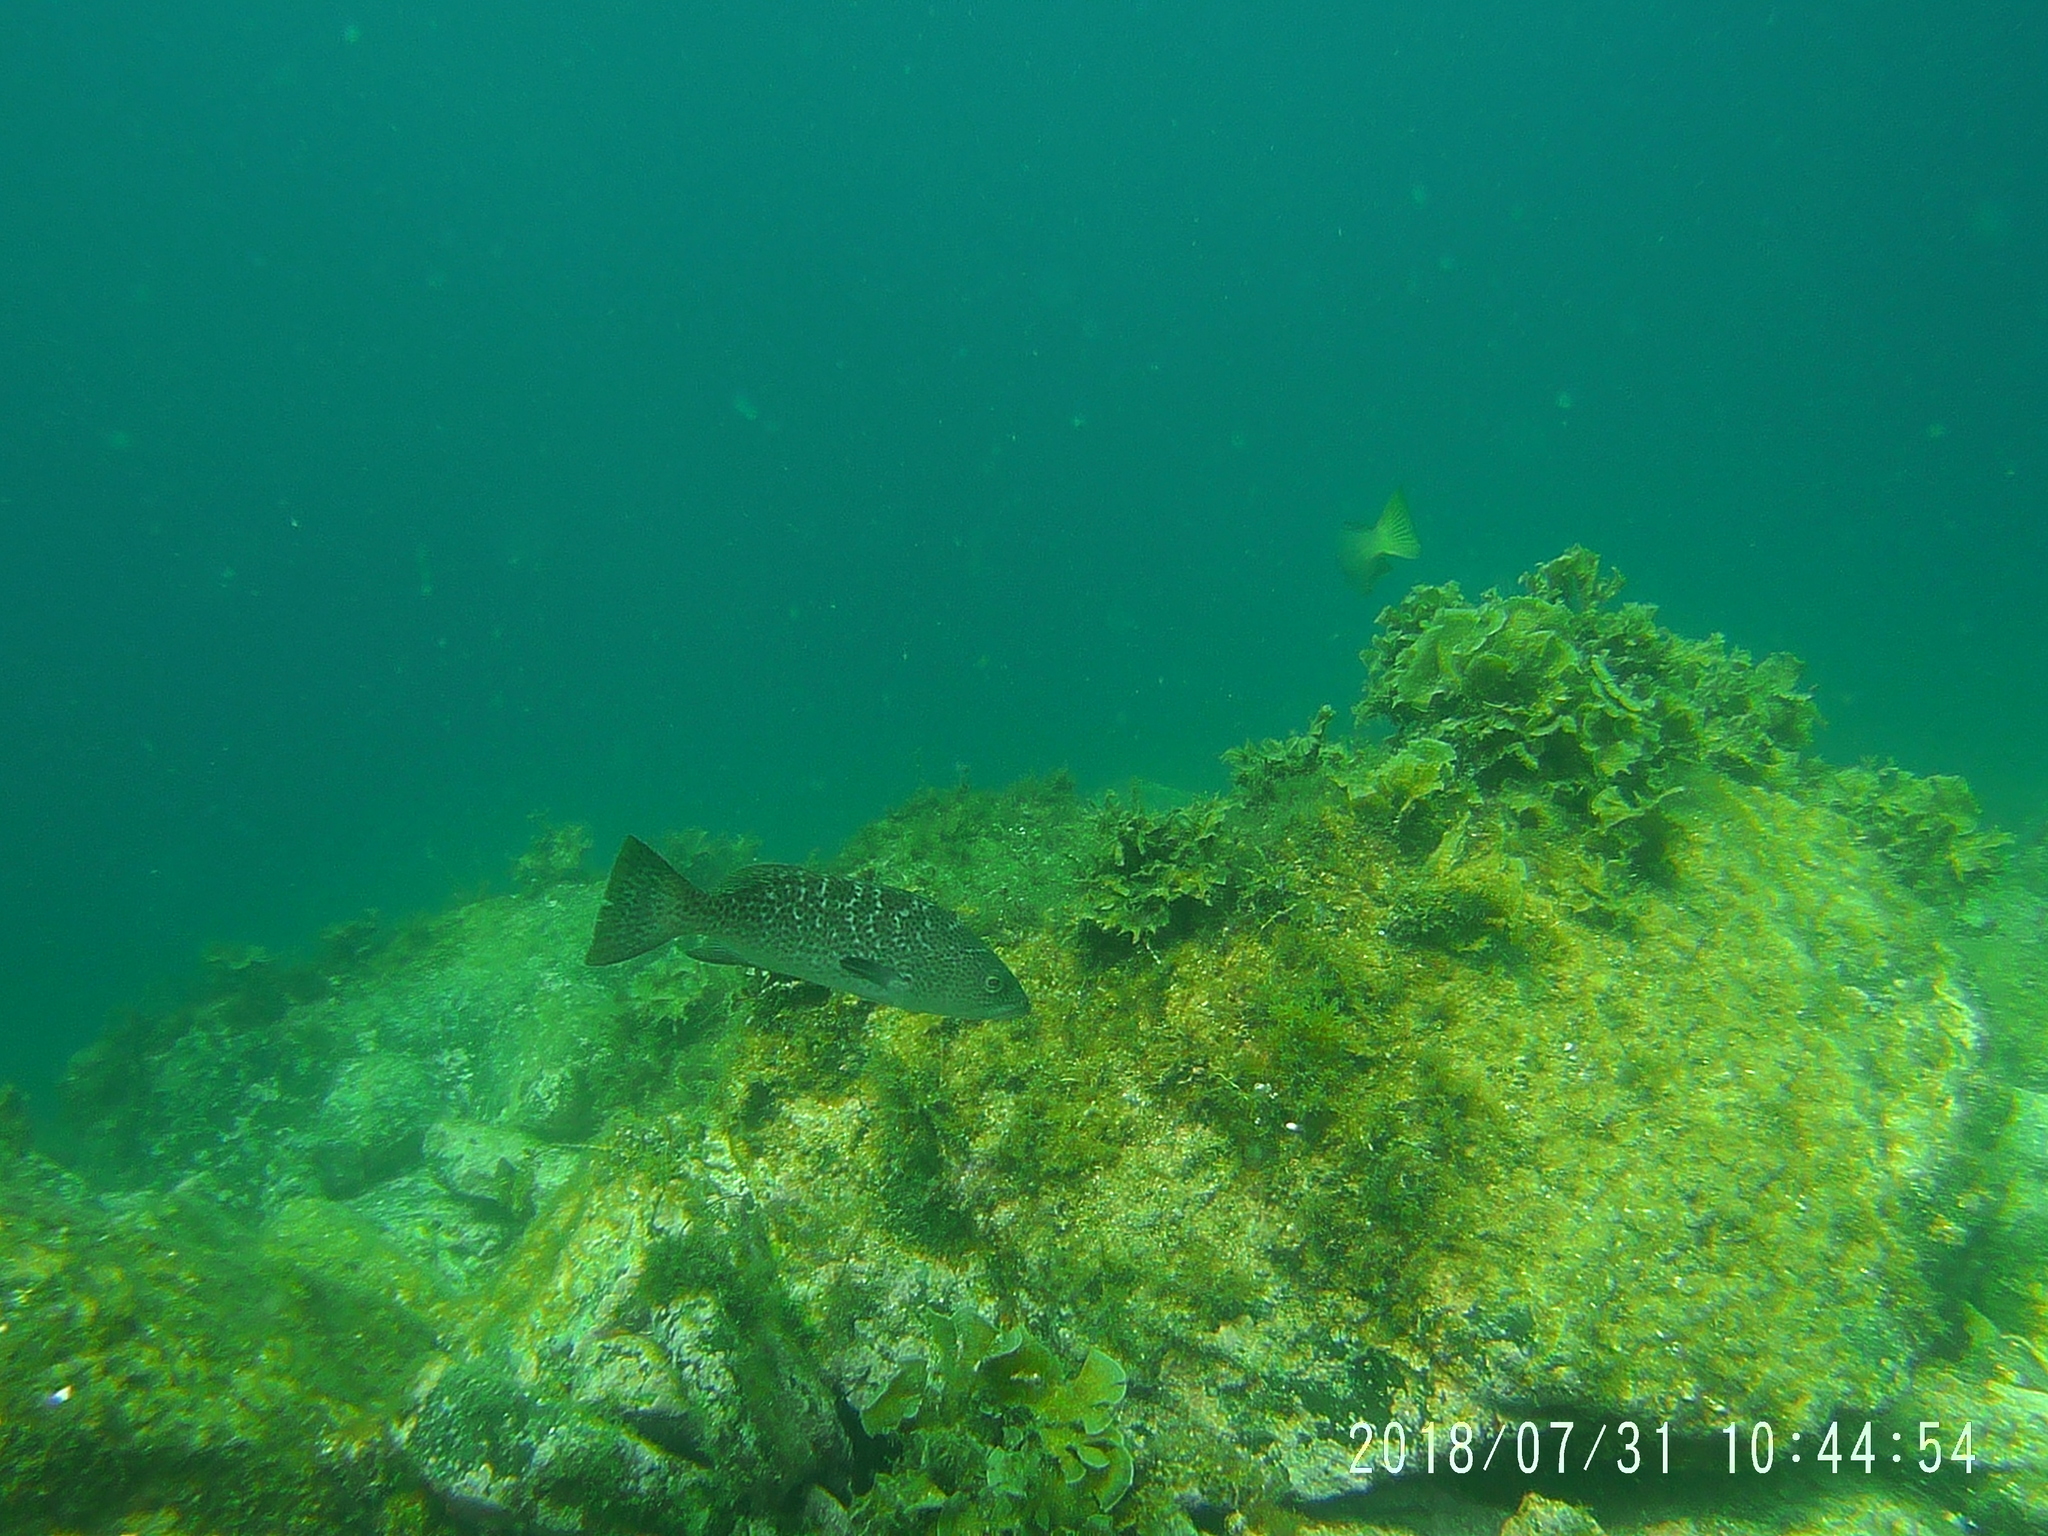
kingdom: Animalia
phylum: Chordata
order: Perciformes
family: Serranidae
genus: Mycteroperca
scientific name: Mycteroperca rosacea
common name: Leopard grouper
